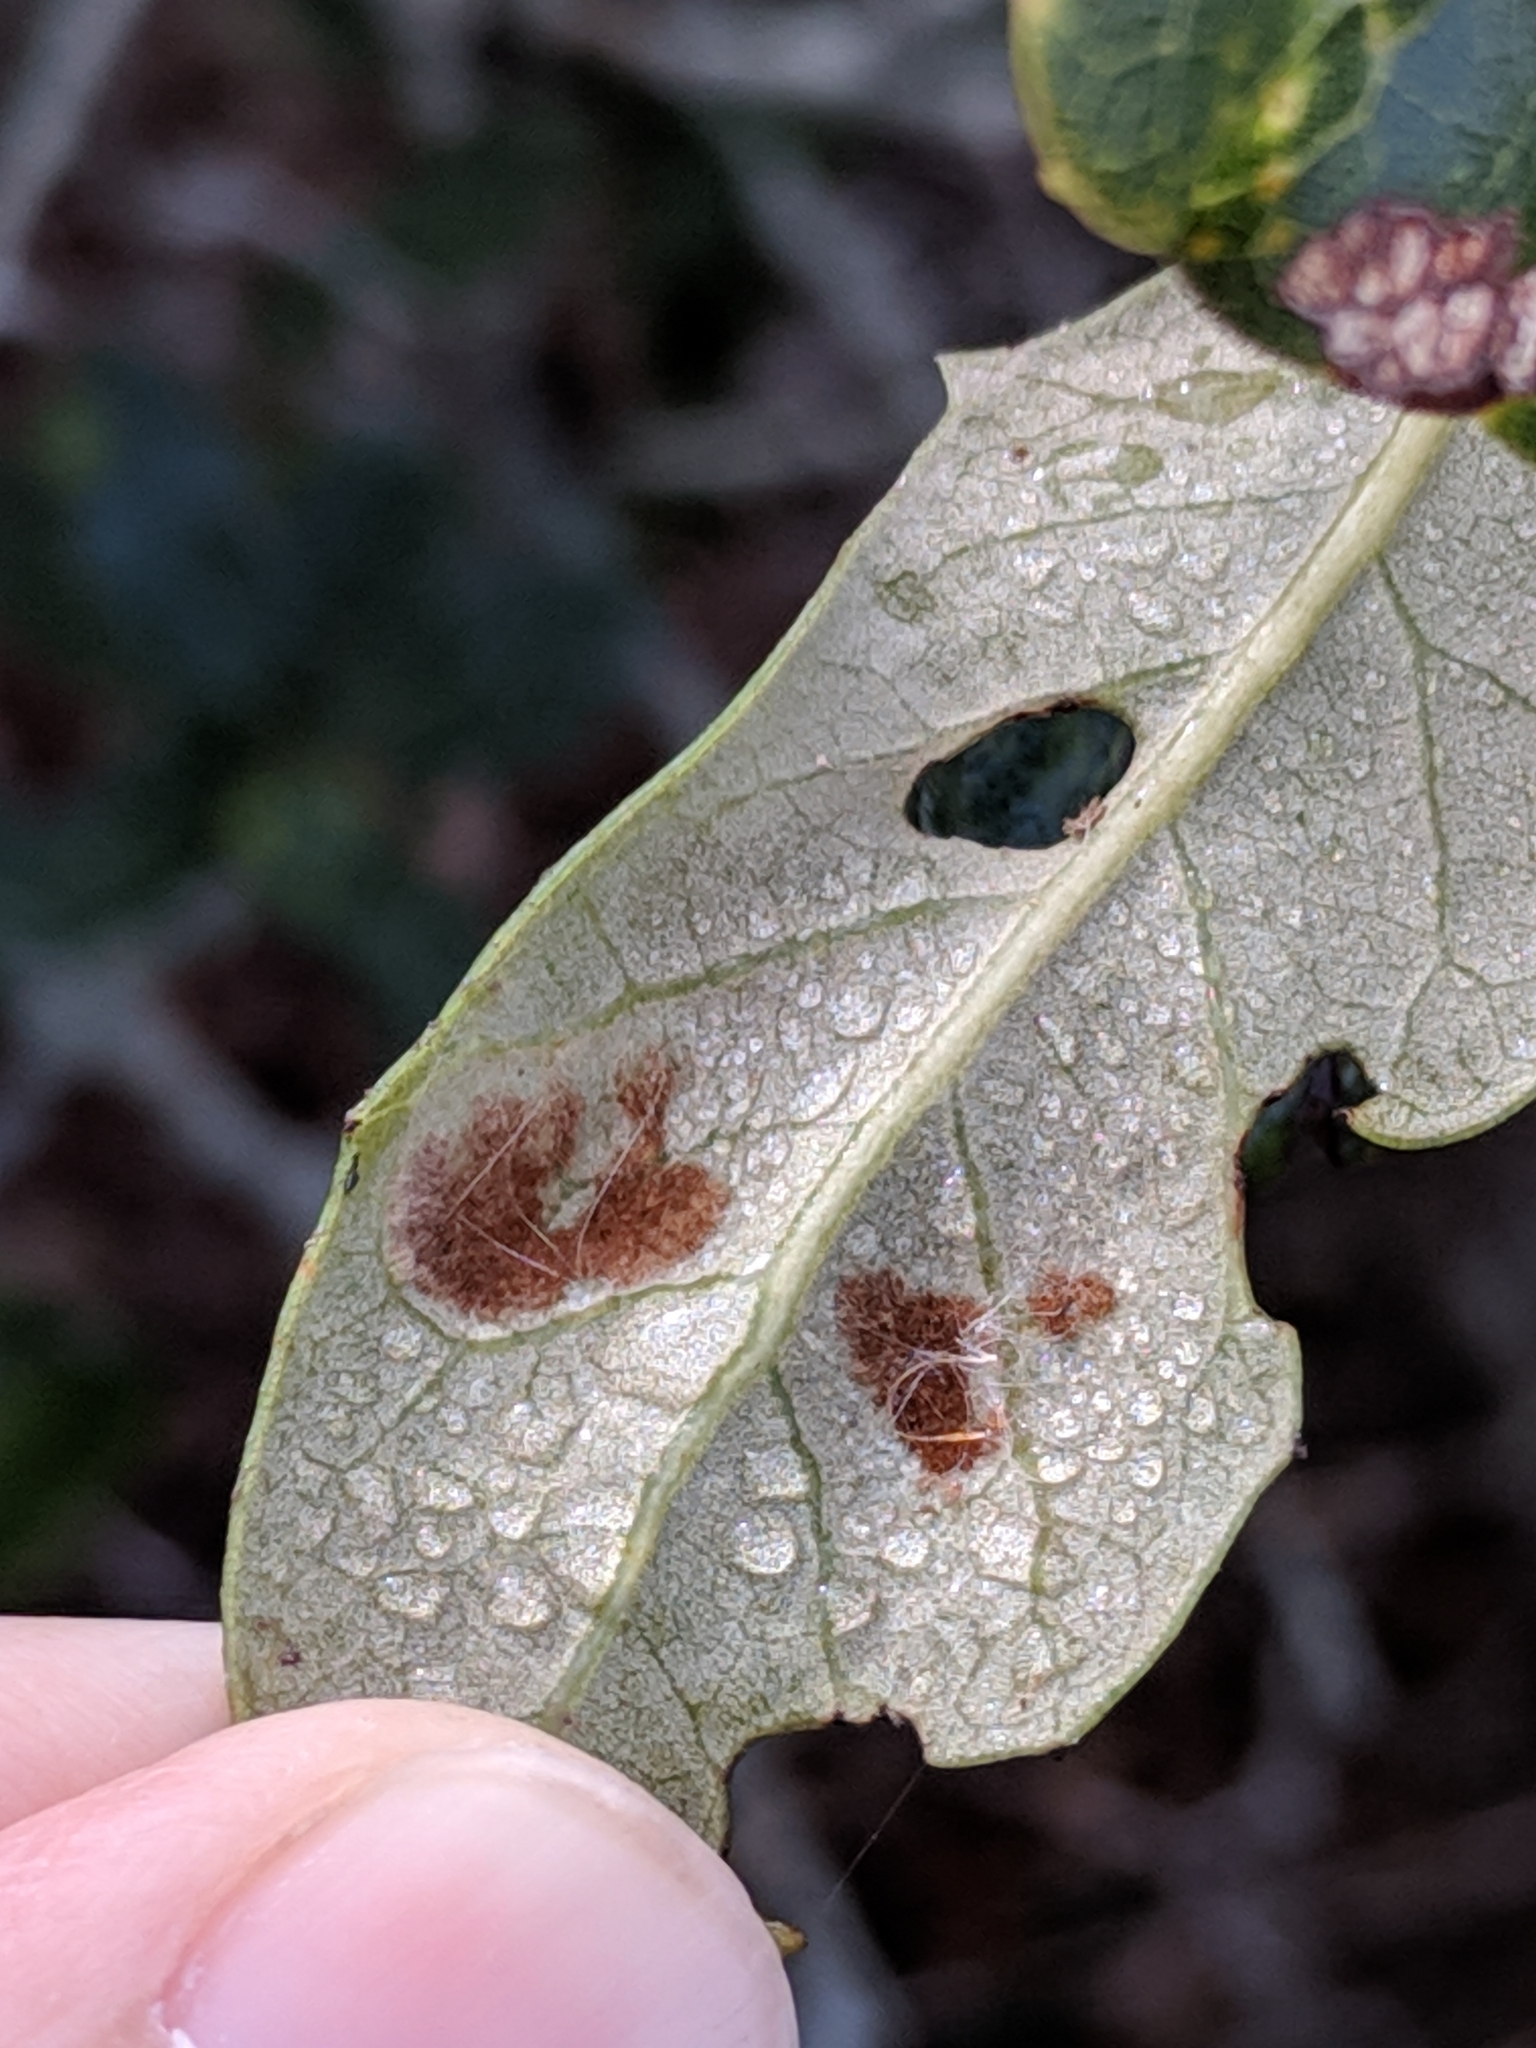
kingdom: Animalia
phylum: Arthropoda
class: Arachnida
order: Trombidiformes
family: Eriophyidae
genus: Aceria
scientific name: Aceria quercina
